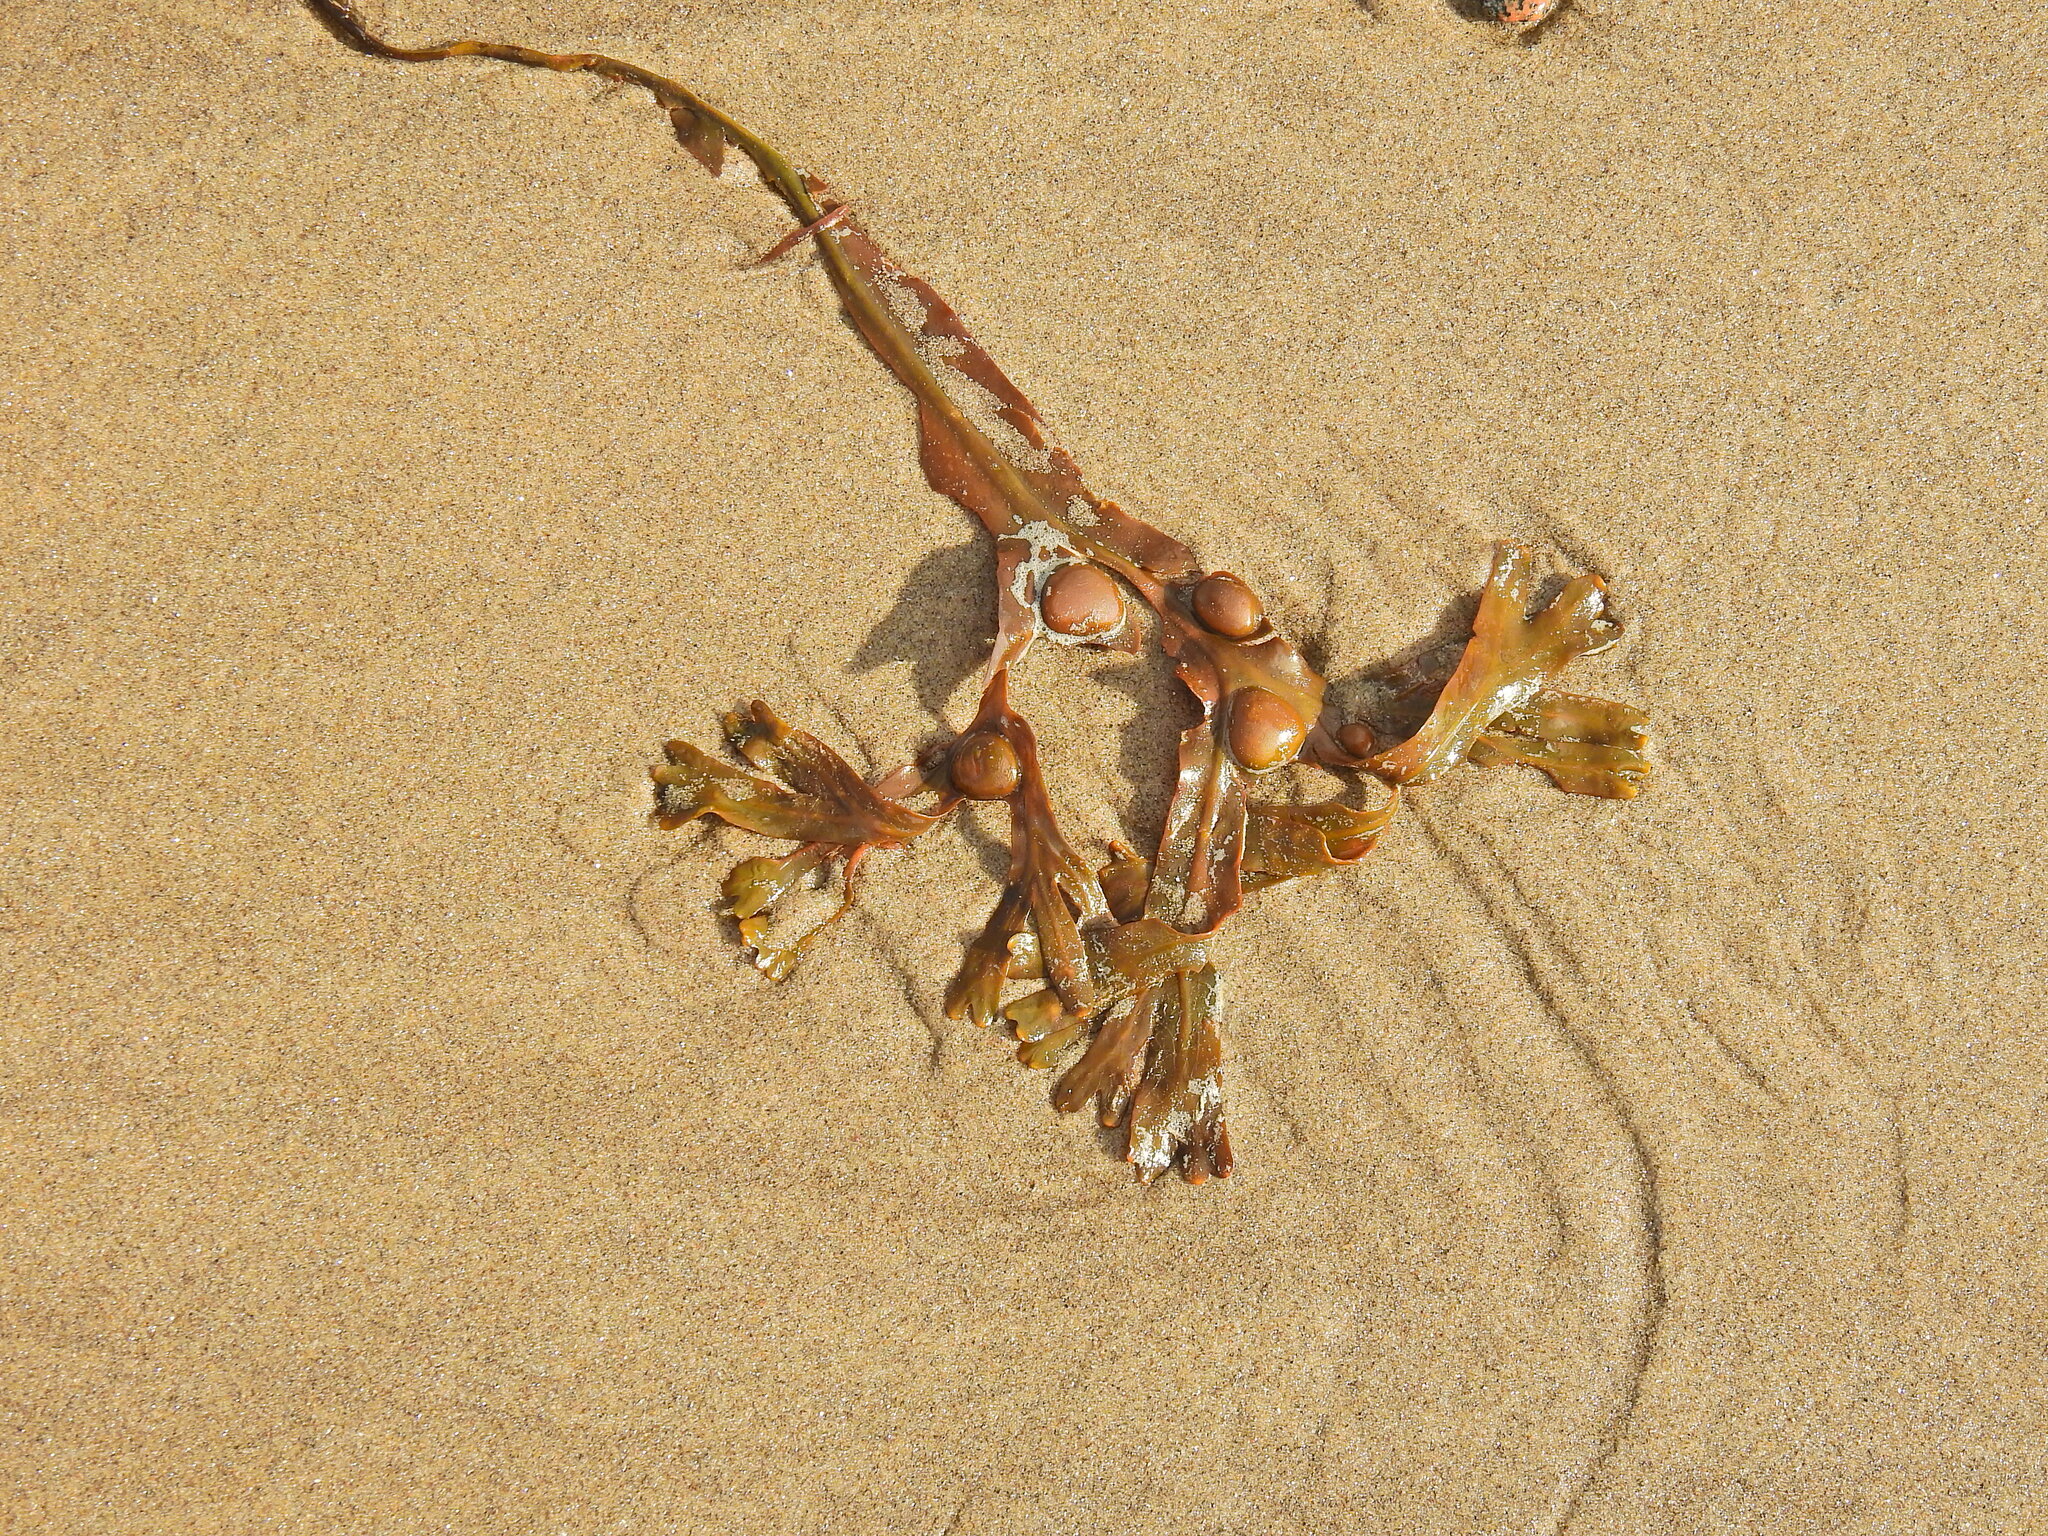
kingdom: Chromista
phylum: Ochrophyta
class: Phaeophyceae
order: Fucales
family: Fucaceae
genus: Fucus
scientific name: Fucus vesiculosus
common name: Bladder wrack
